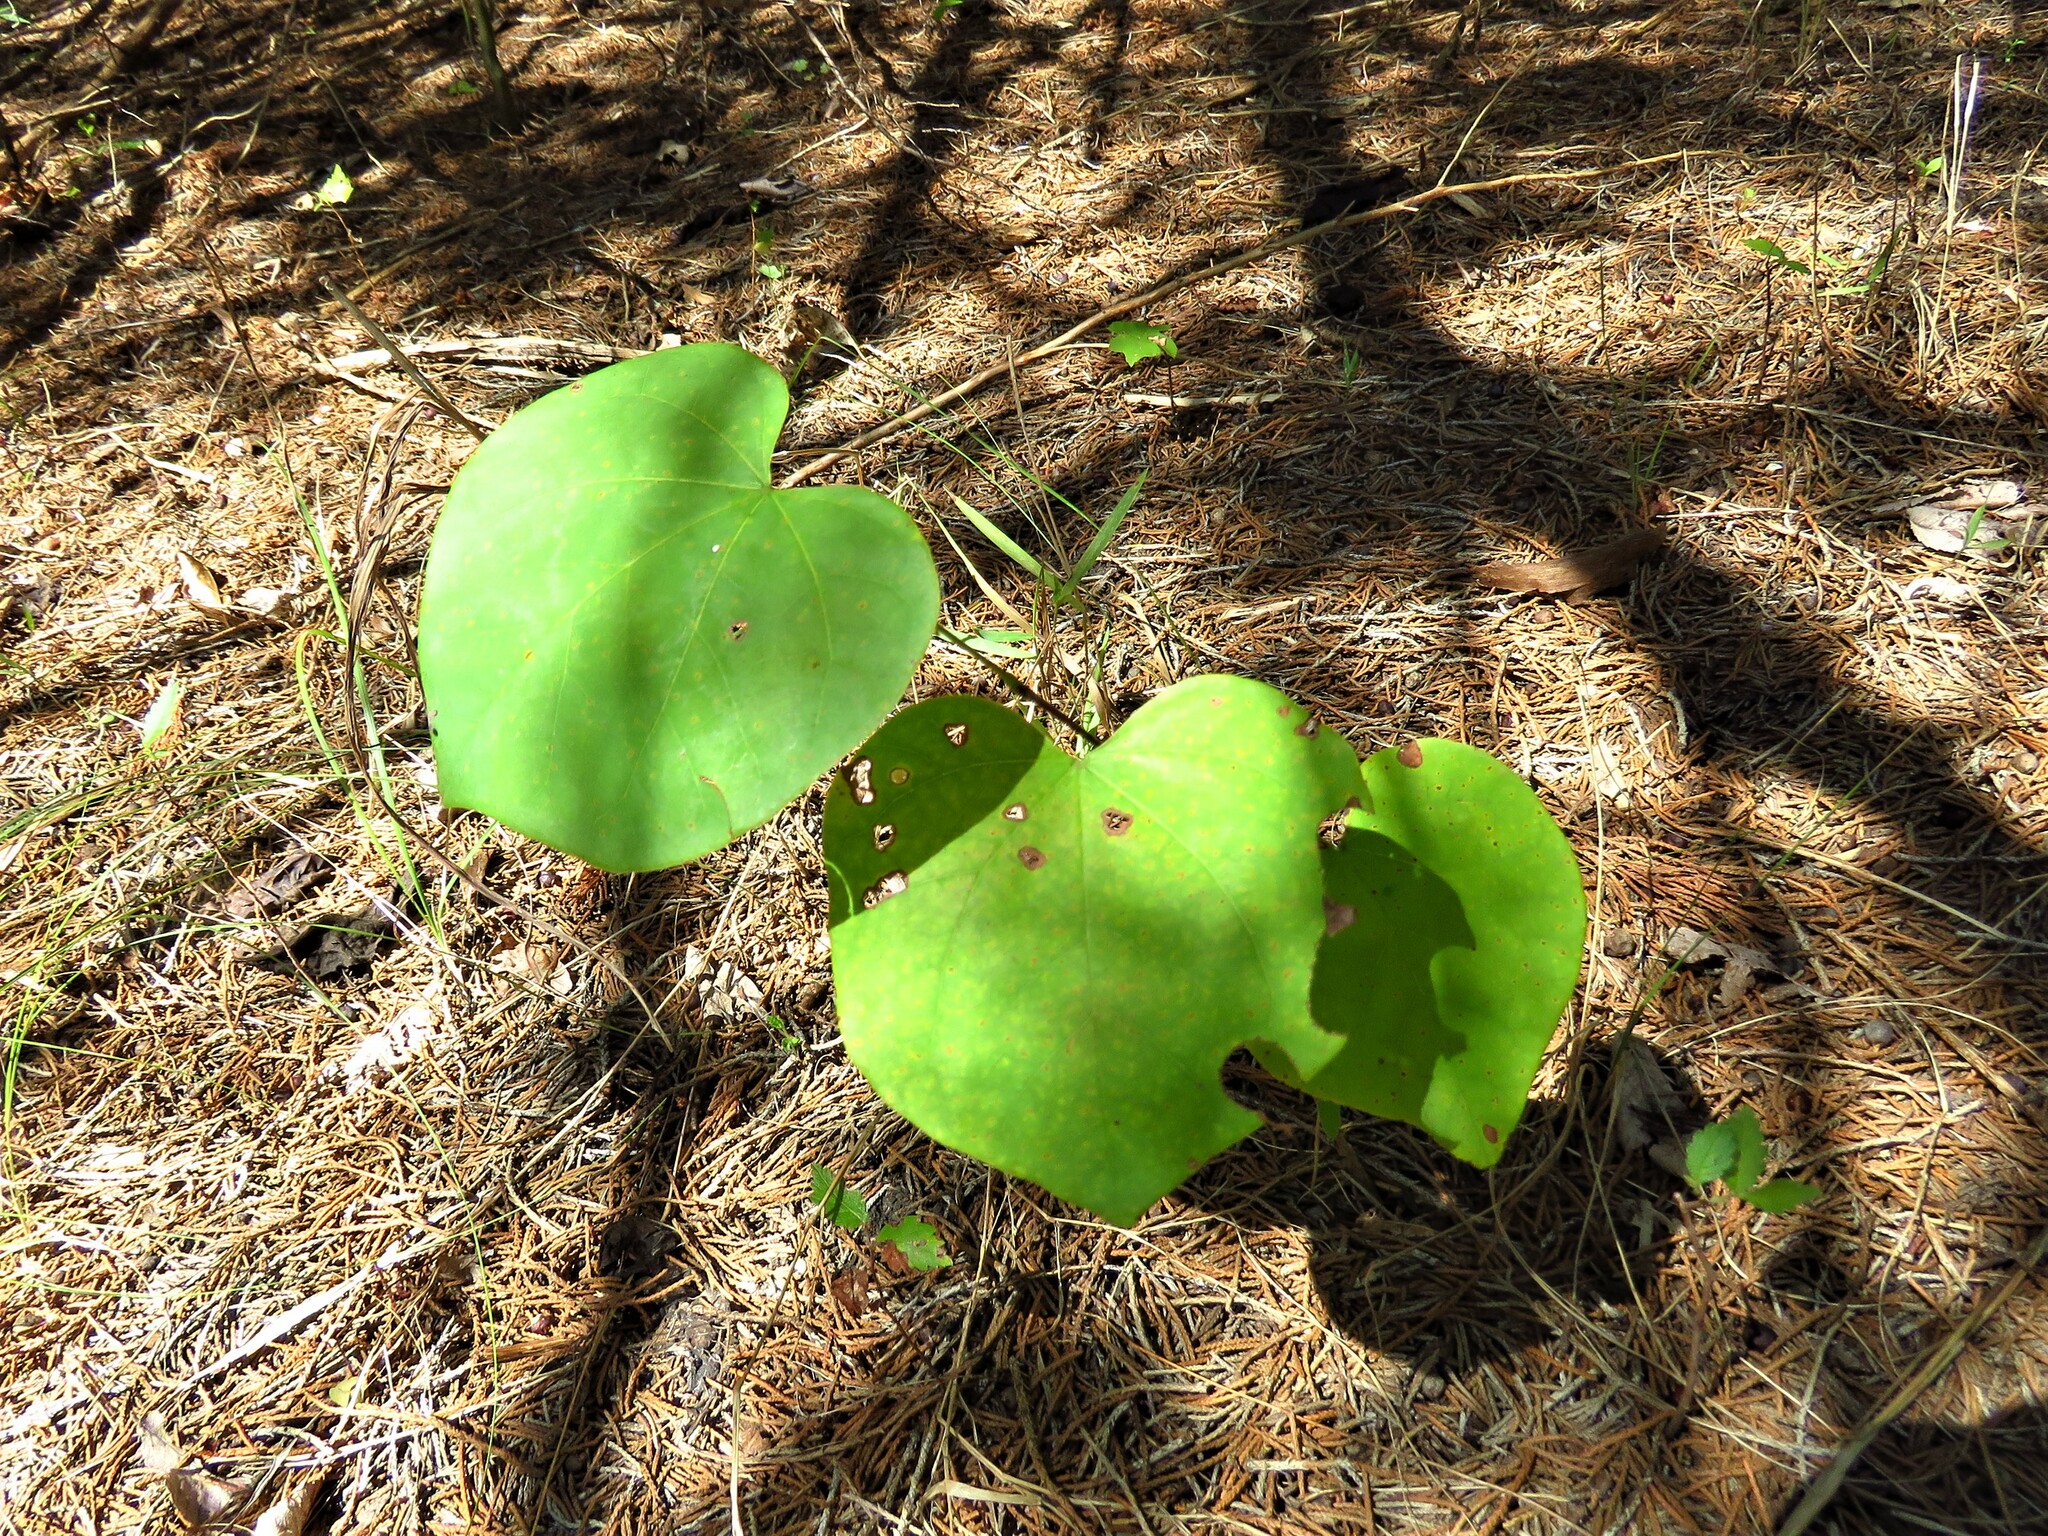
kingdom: Plantae
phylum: Tracheophyta
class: Magnoliopsida
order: Fabales
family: Fabaceae
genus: Cercis
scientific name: Cercis canadensis
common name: Eastern redbud
